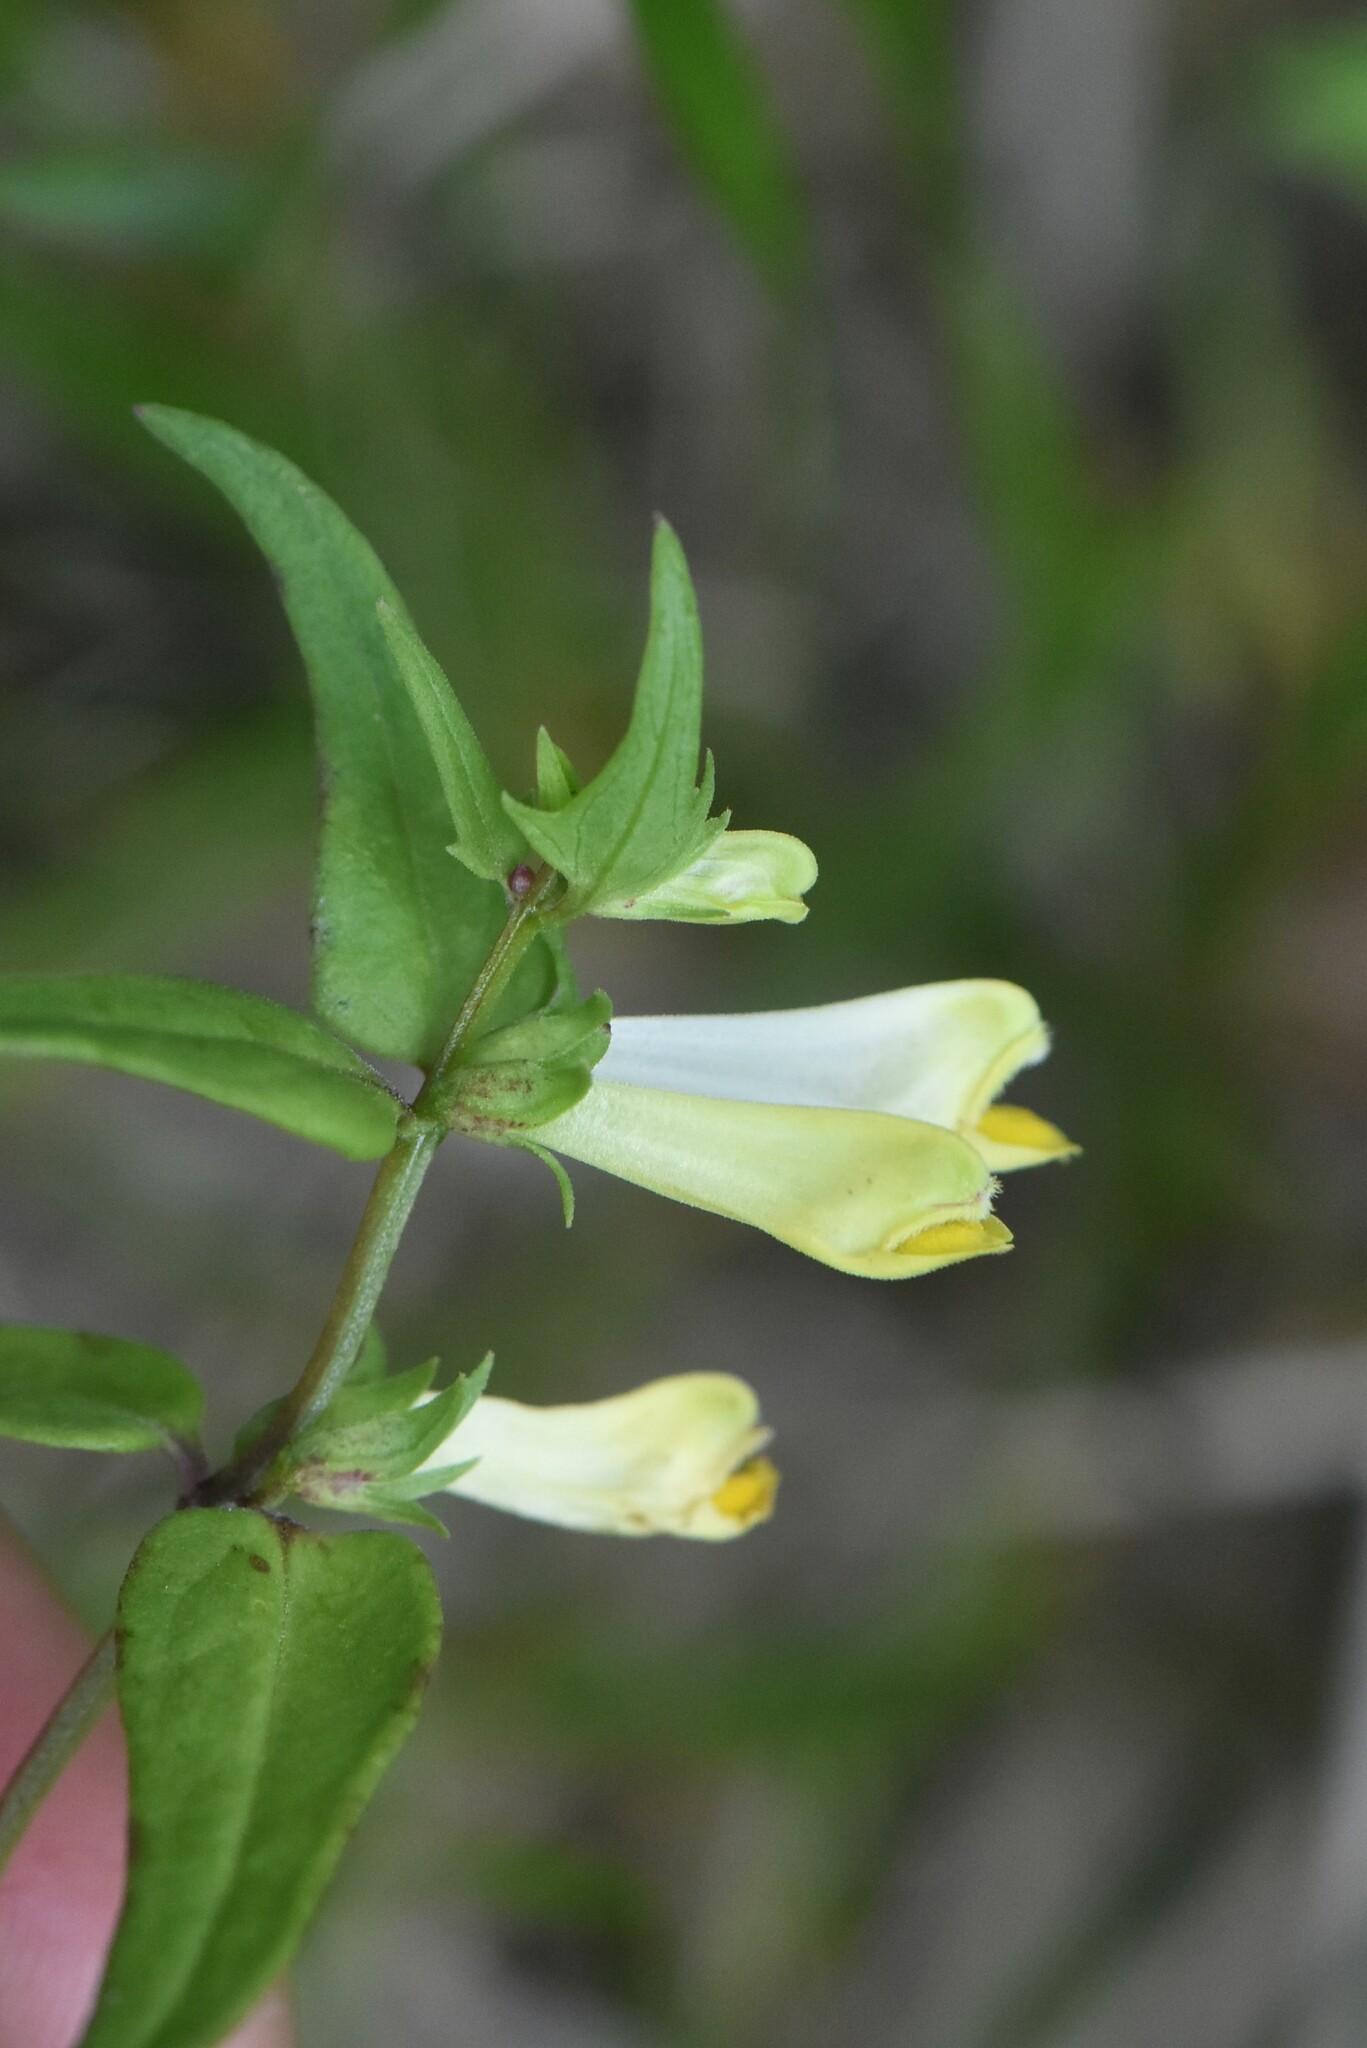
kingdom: Plantae
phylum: Tracheophyta
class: Magnoliopsida
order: Lamiales
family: Orobanchaceae
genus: Melampyrum
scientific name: Melampyrum pratense
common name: Common cow-wheat
